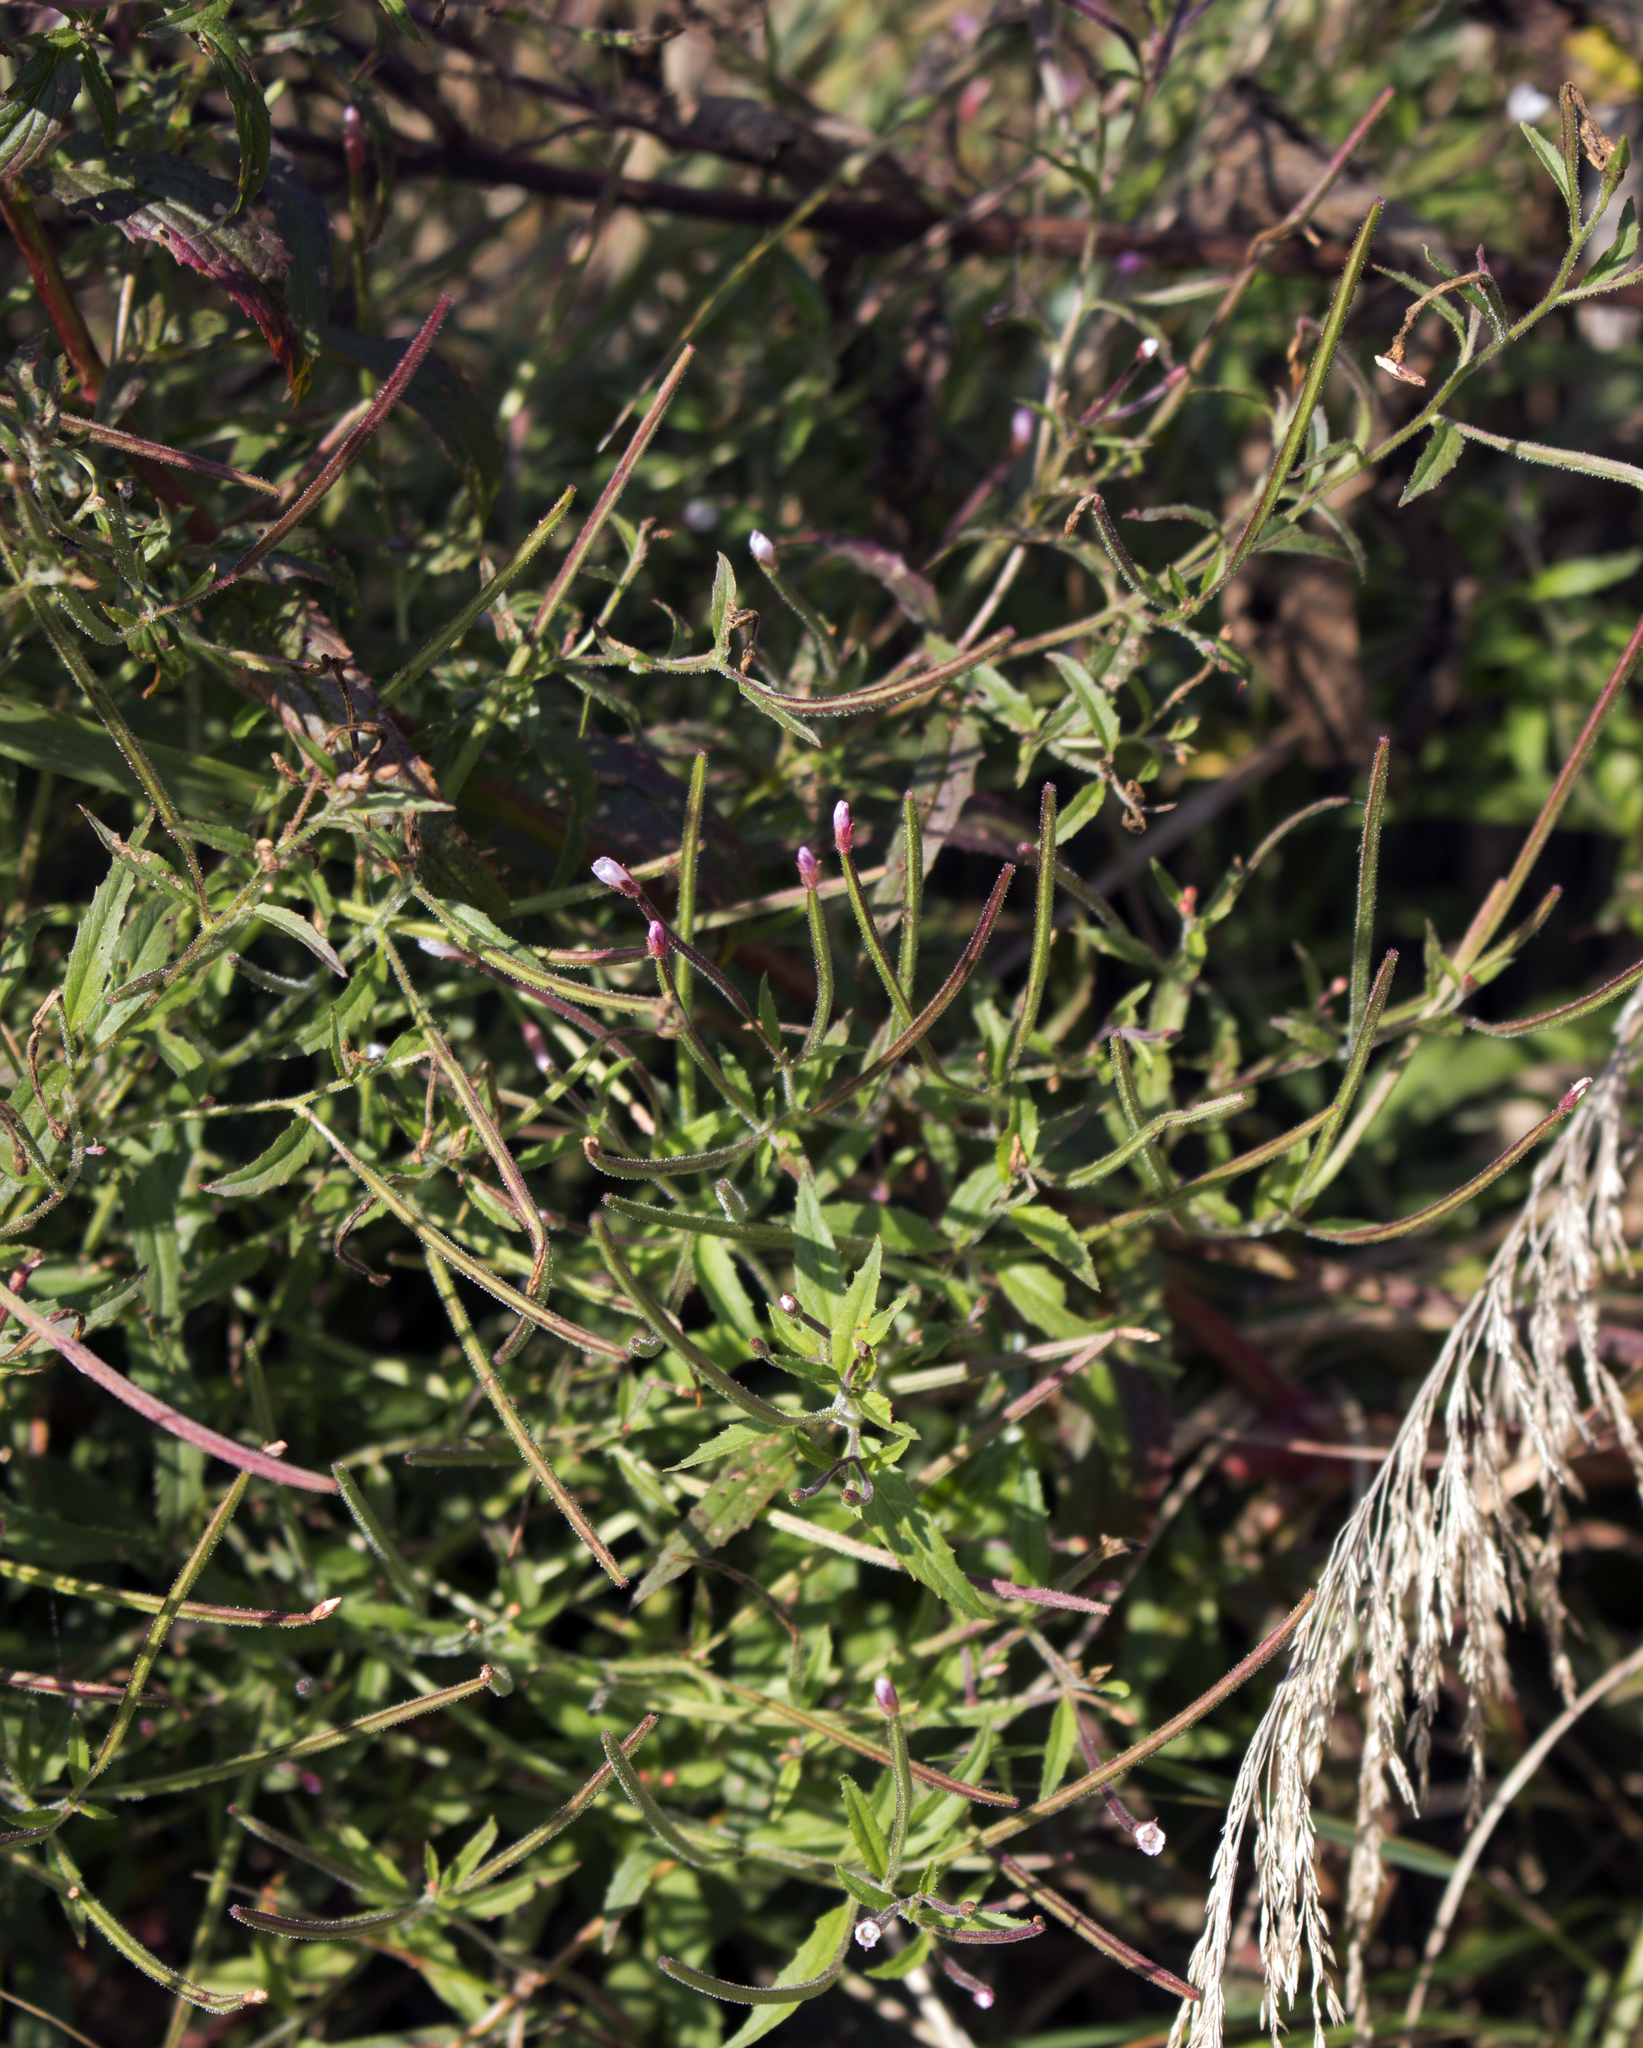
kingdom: Plantae
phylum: Tracheophyta
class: Magnoliopsida
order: Myrtales
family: Onagraceae
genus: Epilobium
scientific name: Epilobium coloratum
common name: Bronze willowherb
